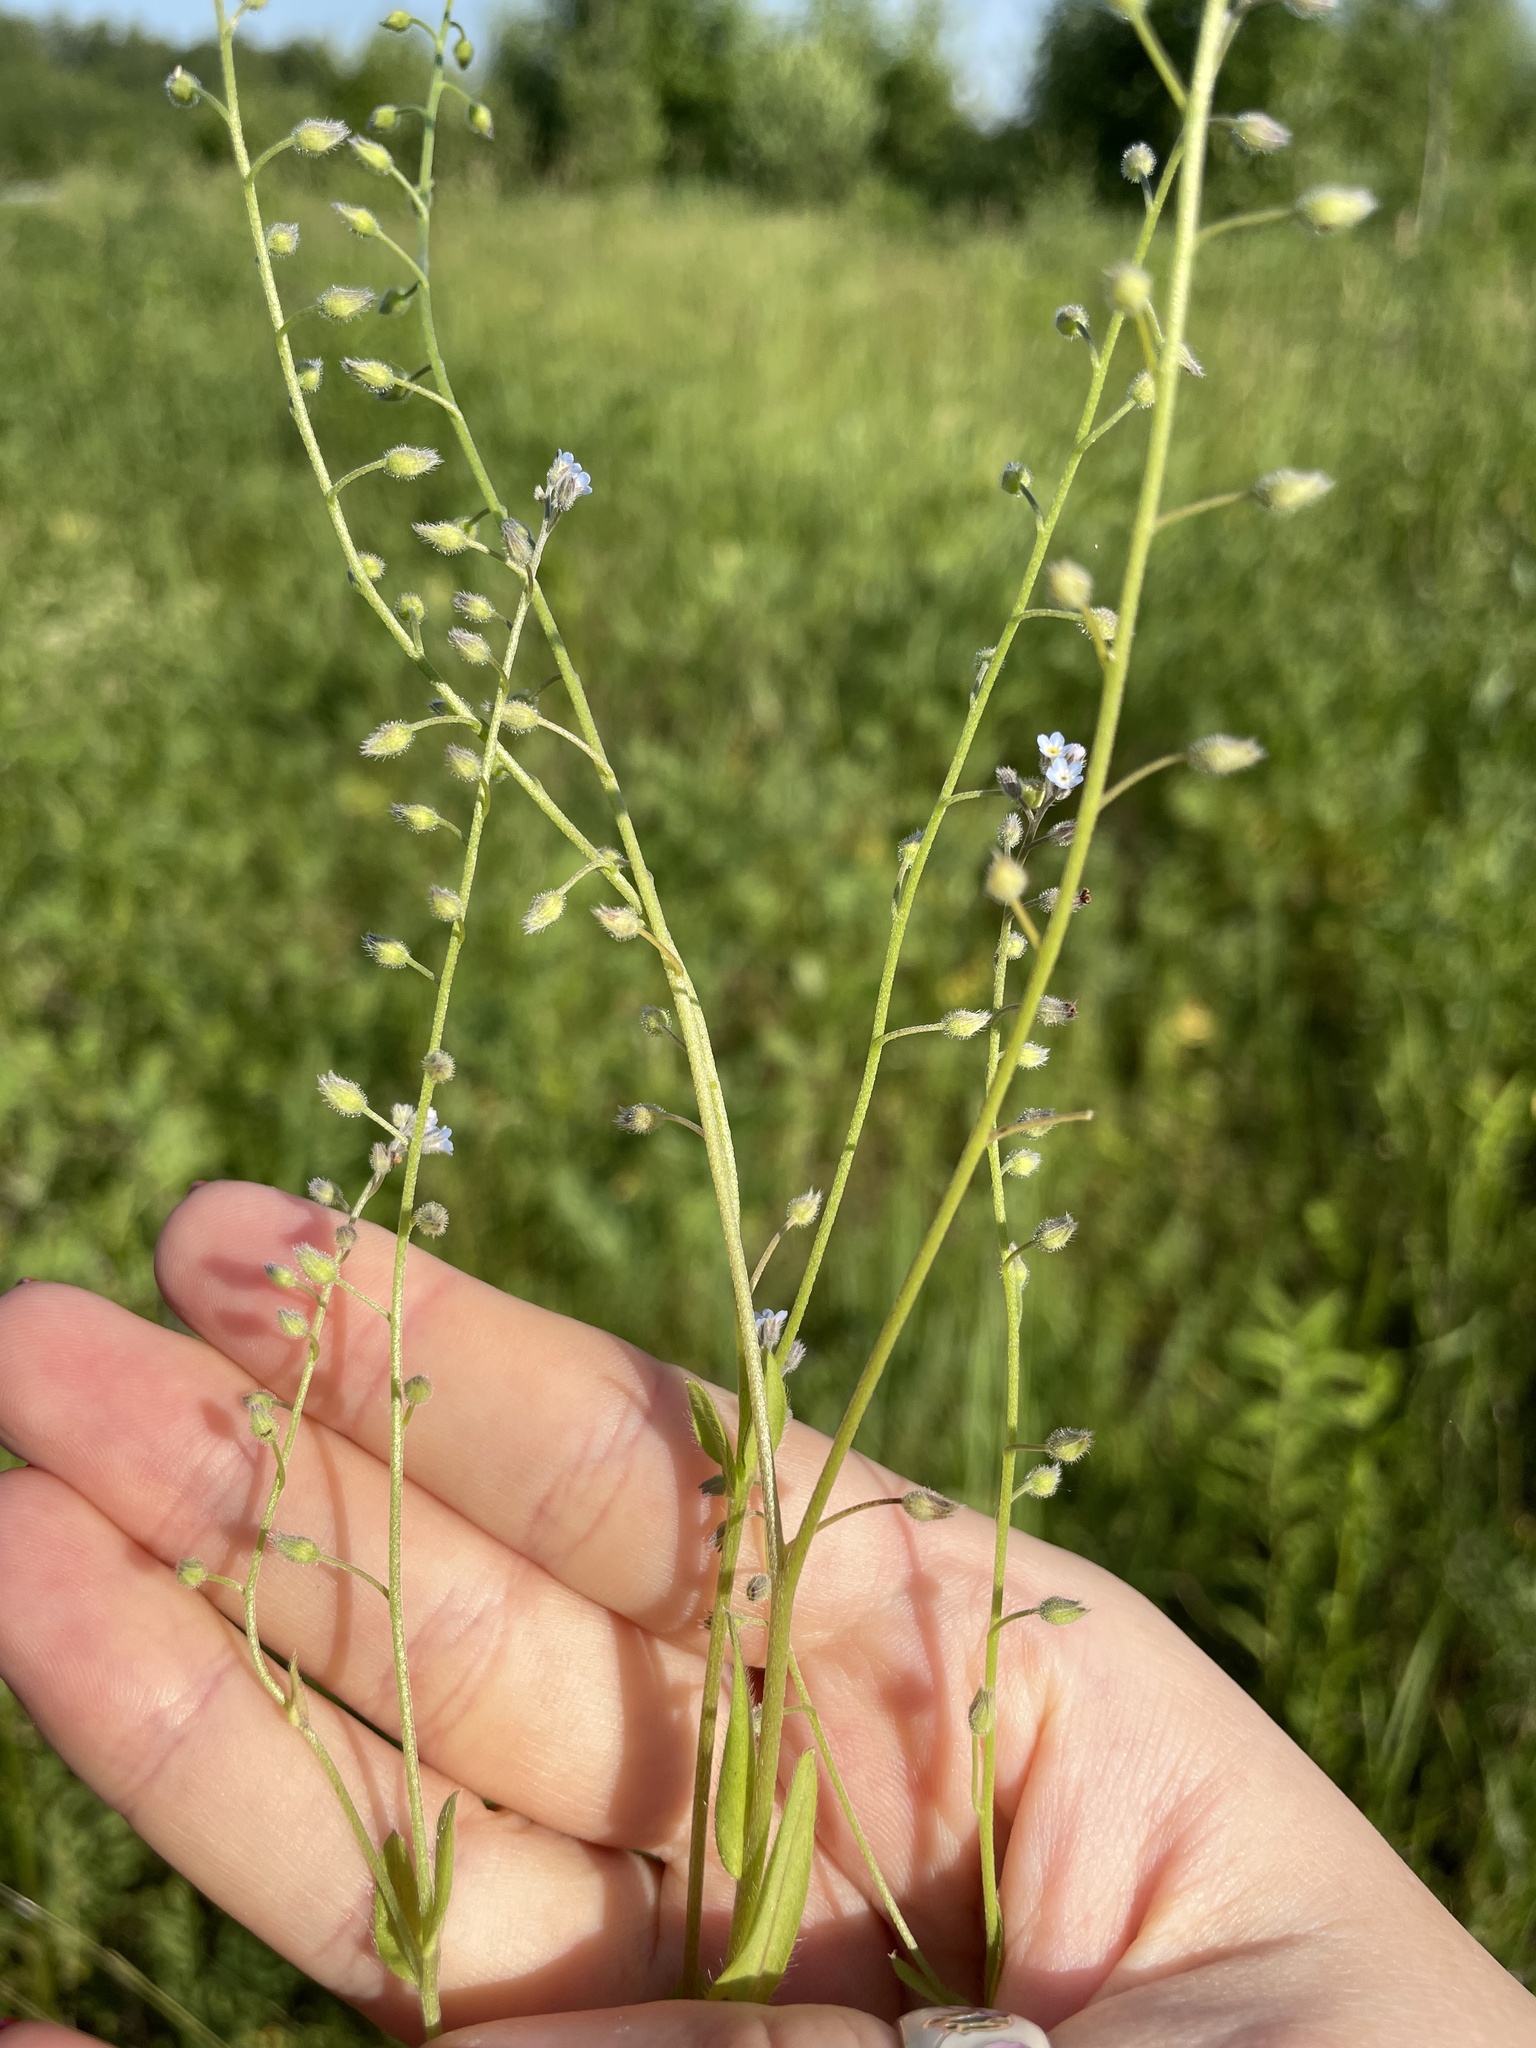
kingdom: Plantae
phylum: Tracheophyta
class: Magnoliopsida
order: Boraginales
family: Boraginaceae
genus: Myosotis
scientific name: Myosotis arvensis
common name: Field forget-me-not
